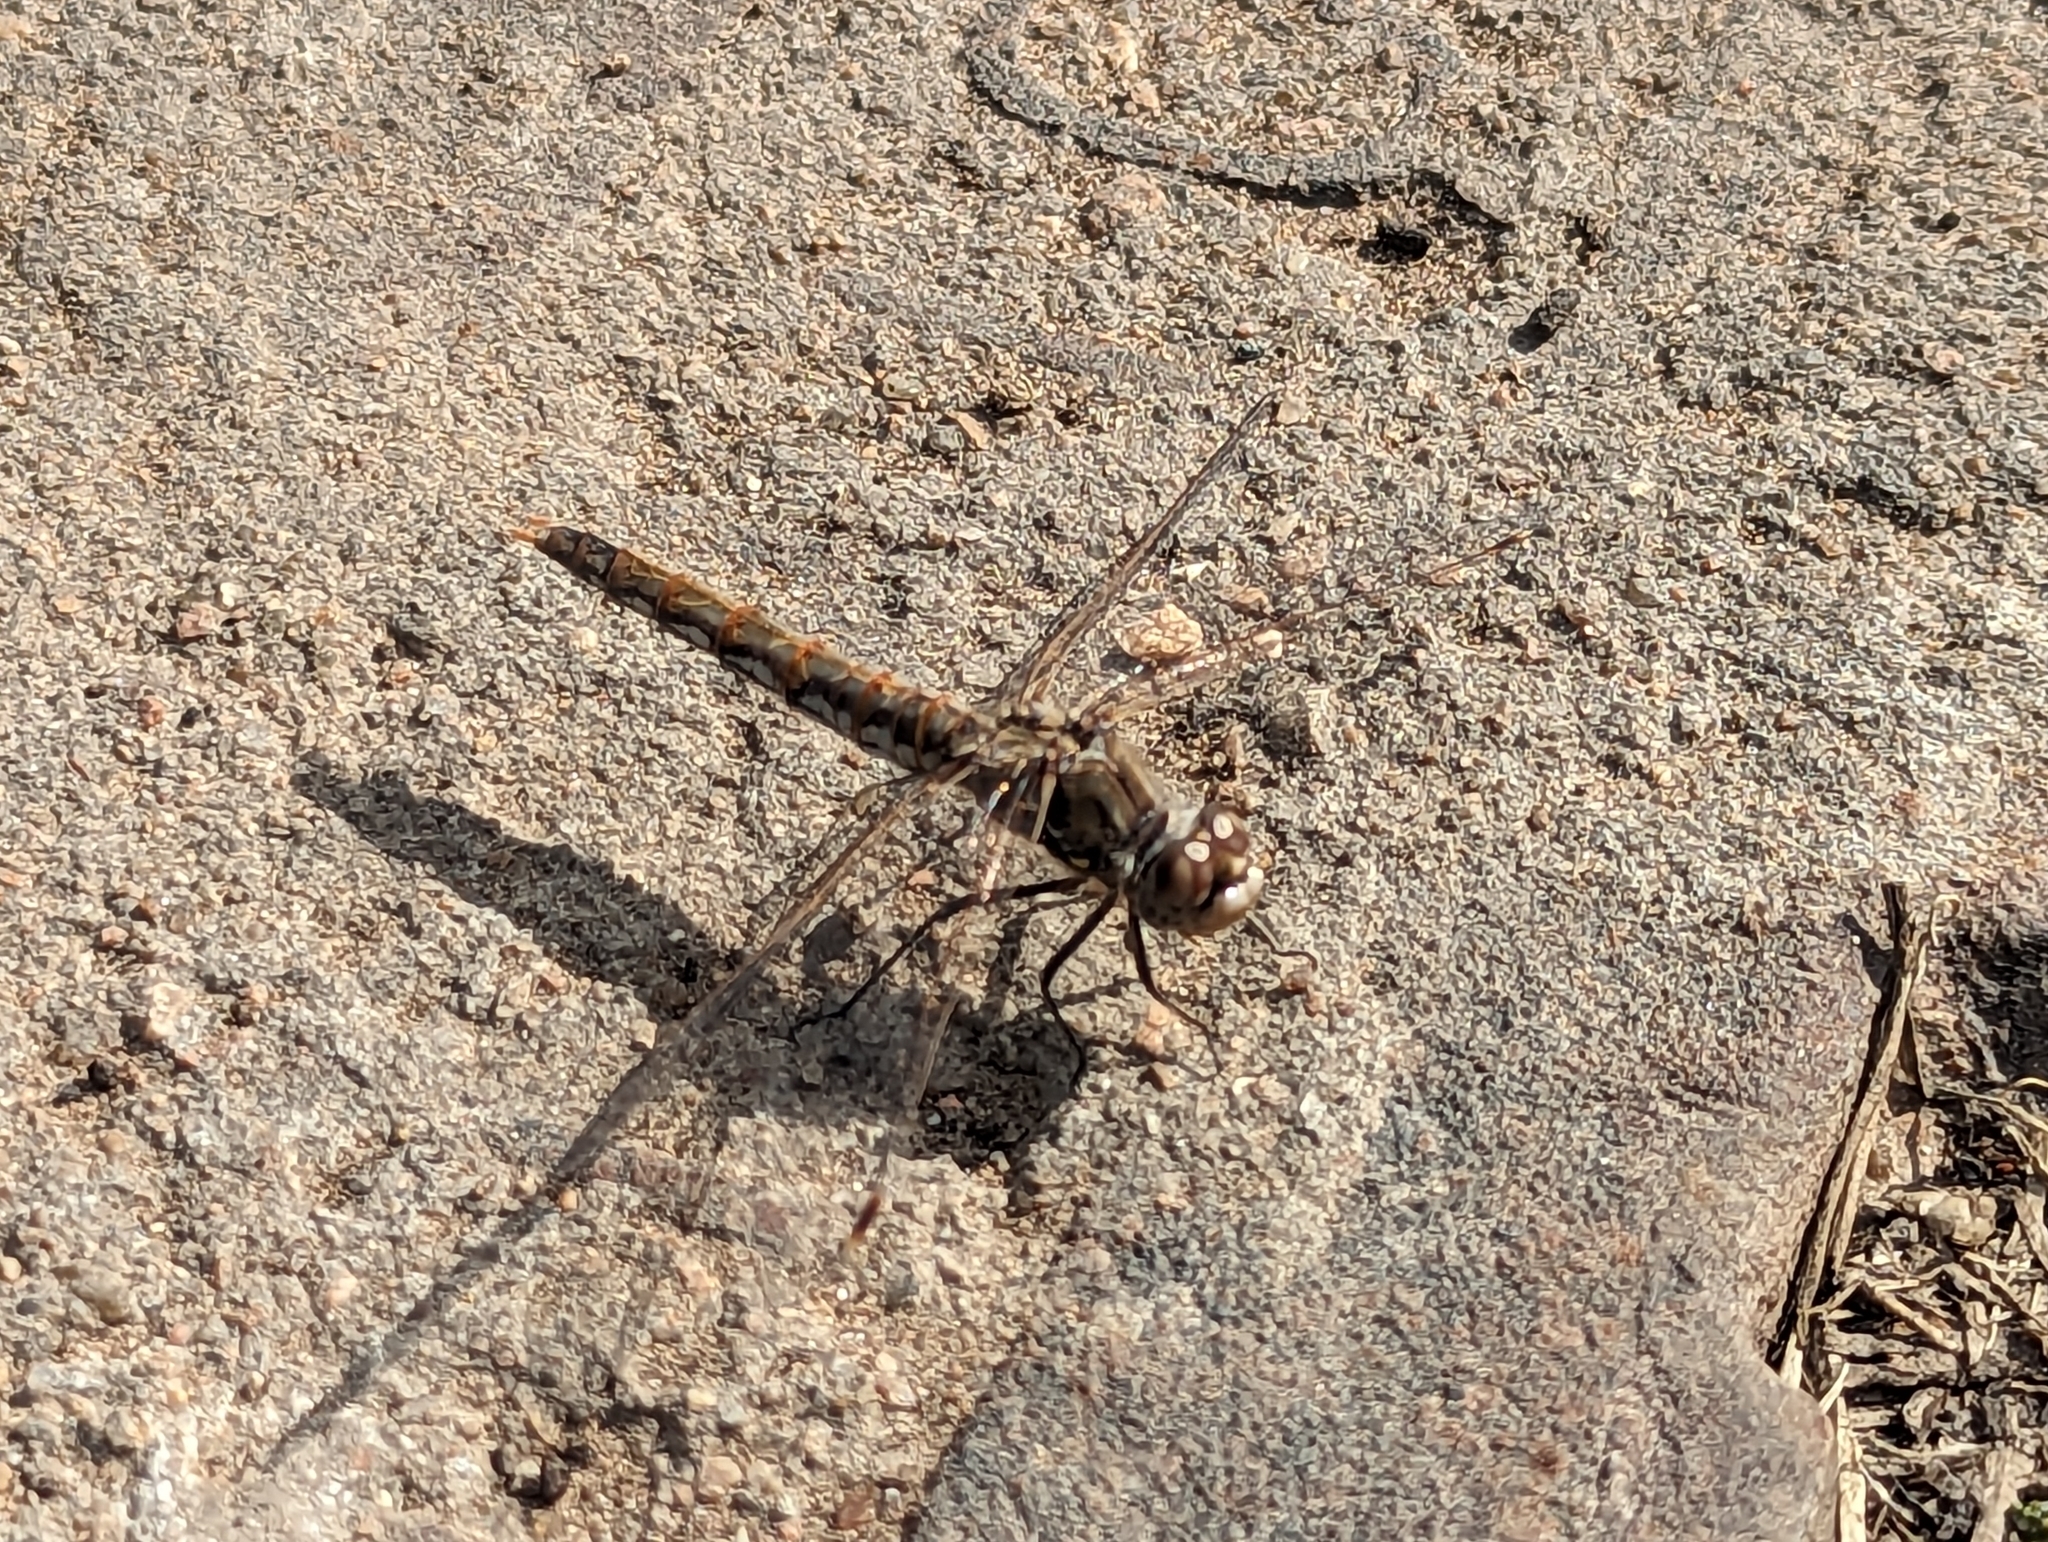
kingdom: Animalia
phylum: Arthropoda
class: Insecta
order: Odonata
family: Libellulidae
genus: Sympetrum
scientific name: Sympetrum corruptum
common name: Variegated meadowhawk
